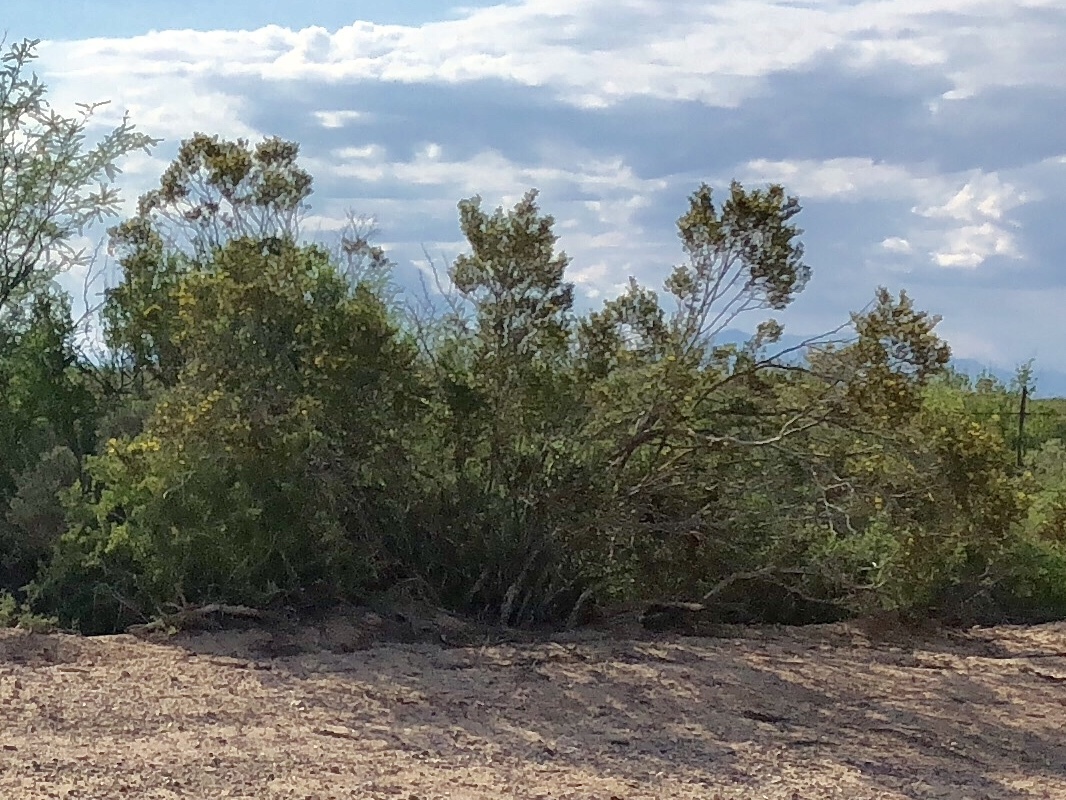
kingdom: Plantae
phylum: Tracheophyta
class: Magnoliopsida
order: Zygophyllales
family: Zygophyllaceae
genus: Larrea
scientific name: Larrea tridentata
